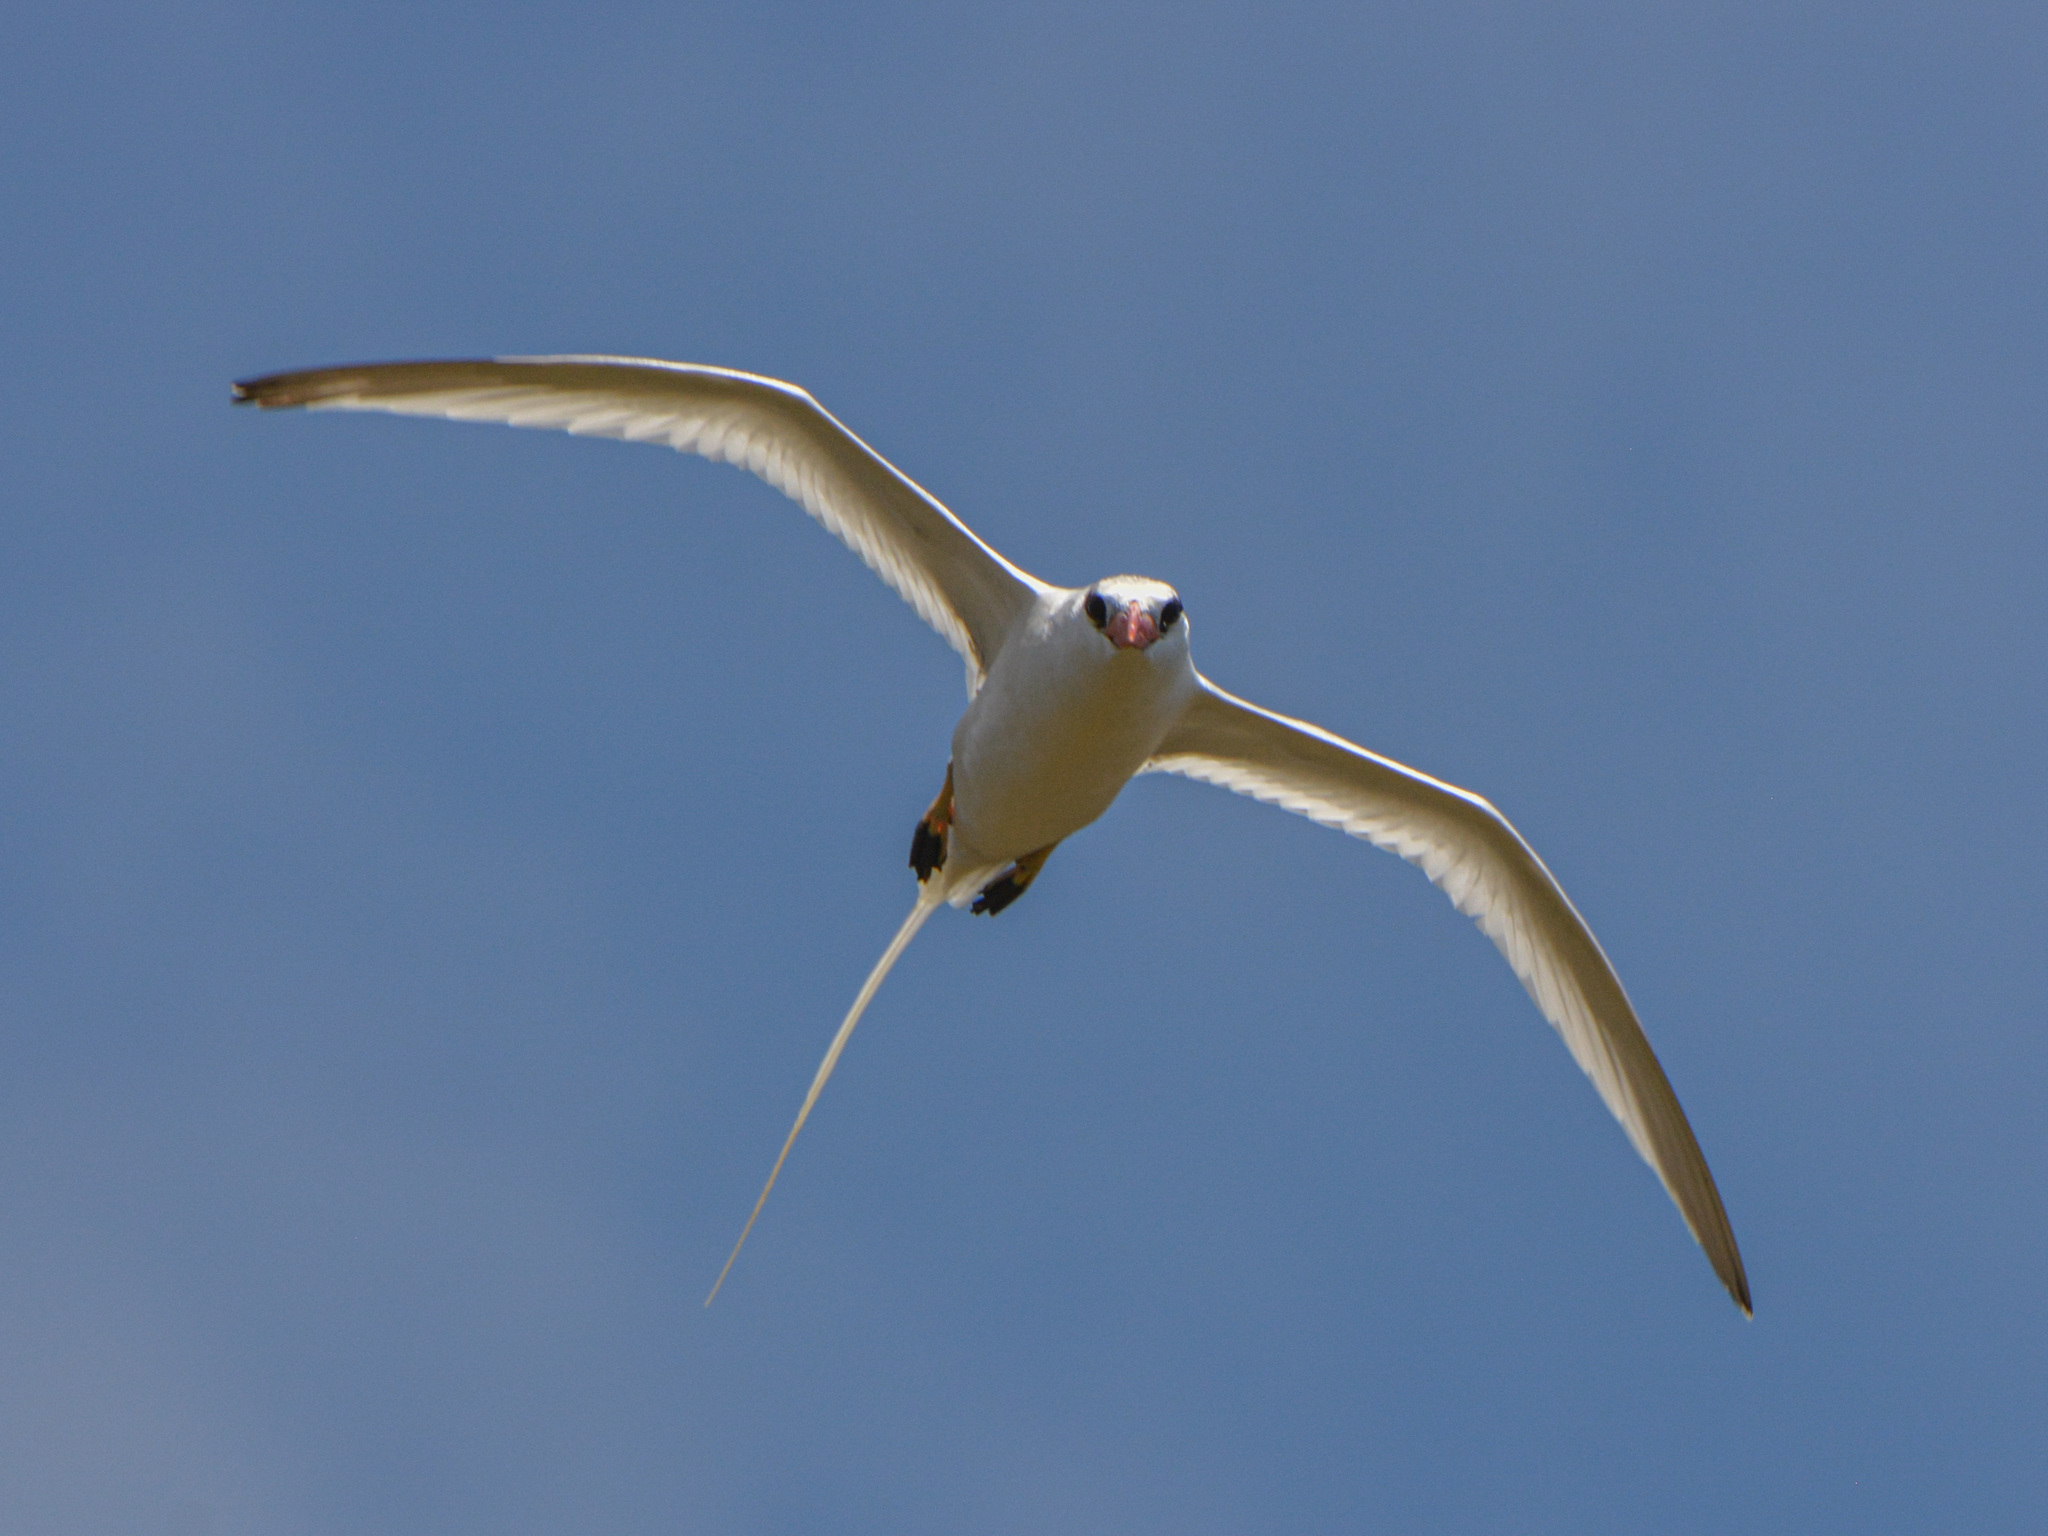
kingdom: Animalia
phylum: Chordata
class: Aves
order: Phaethontiformes
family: Phaethontidae
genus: Phaethon
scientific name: Phaethon aethereus
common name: Red-billed tropicbird
